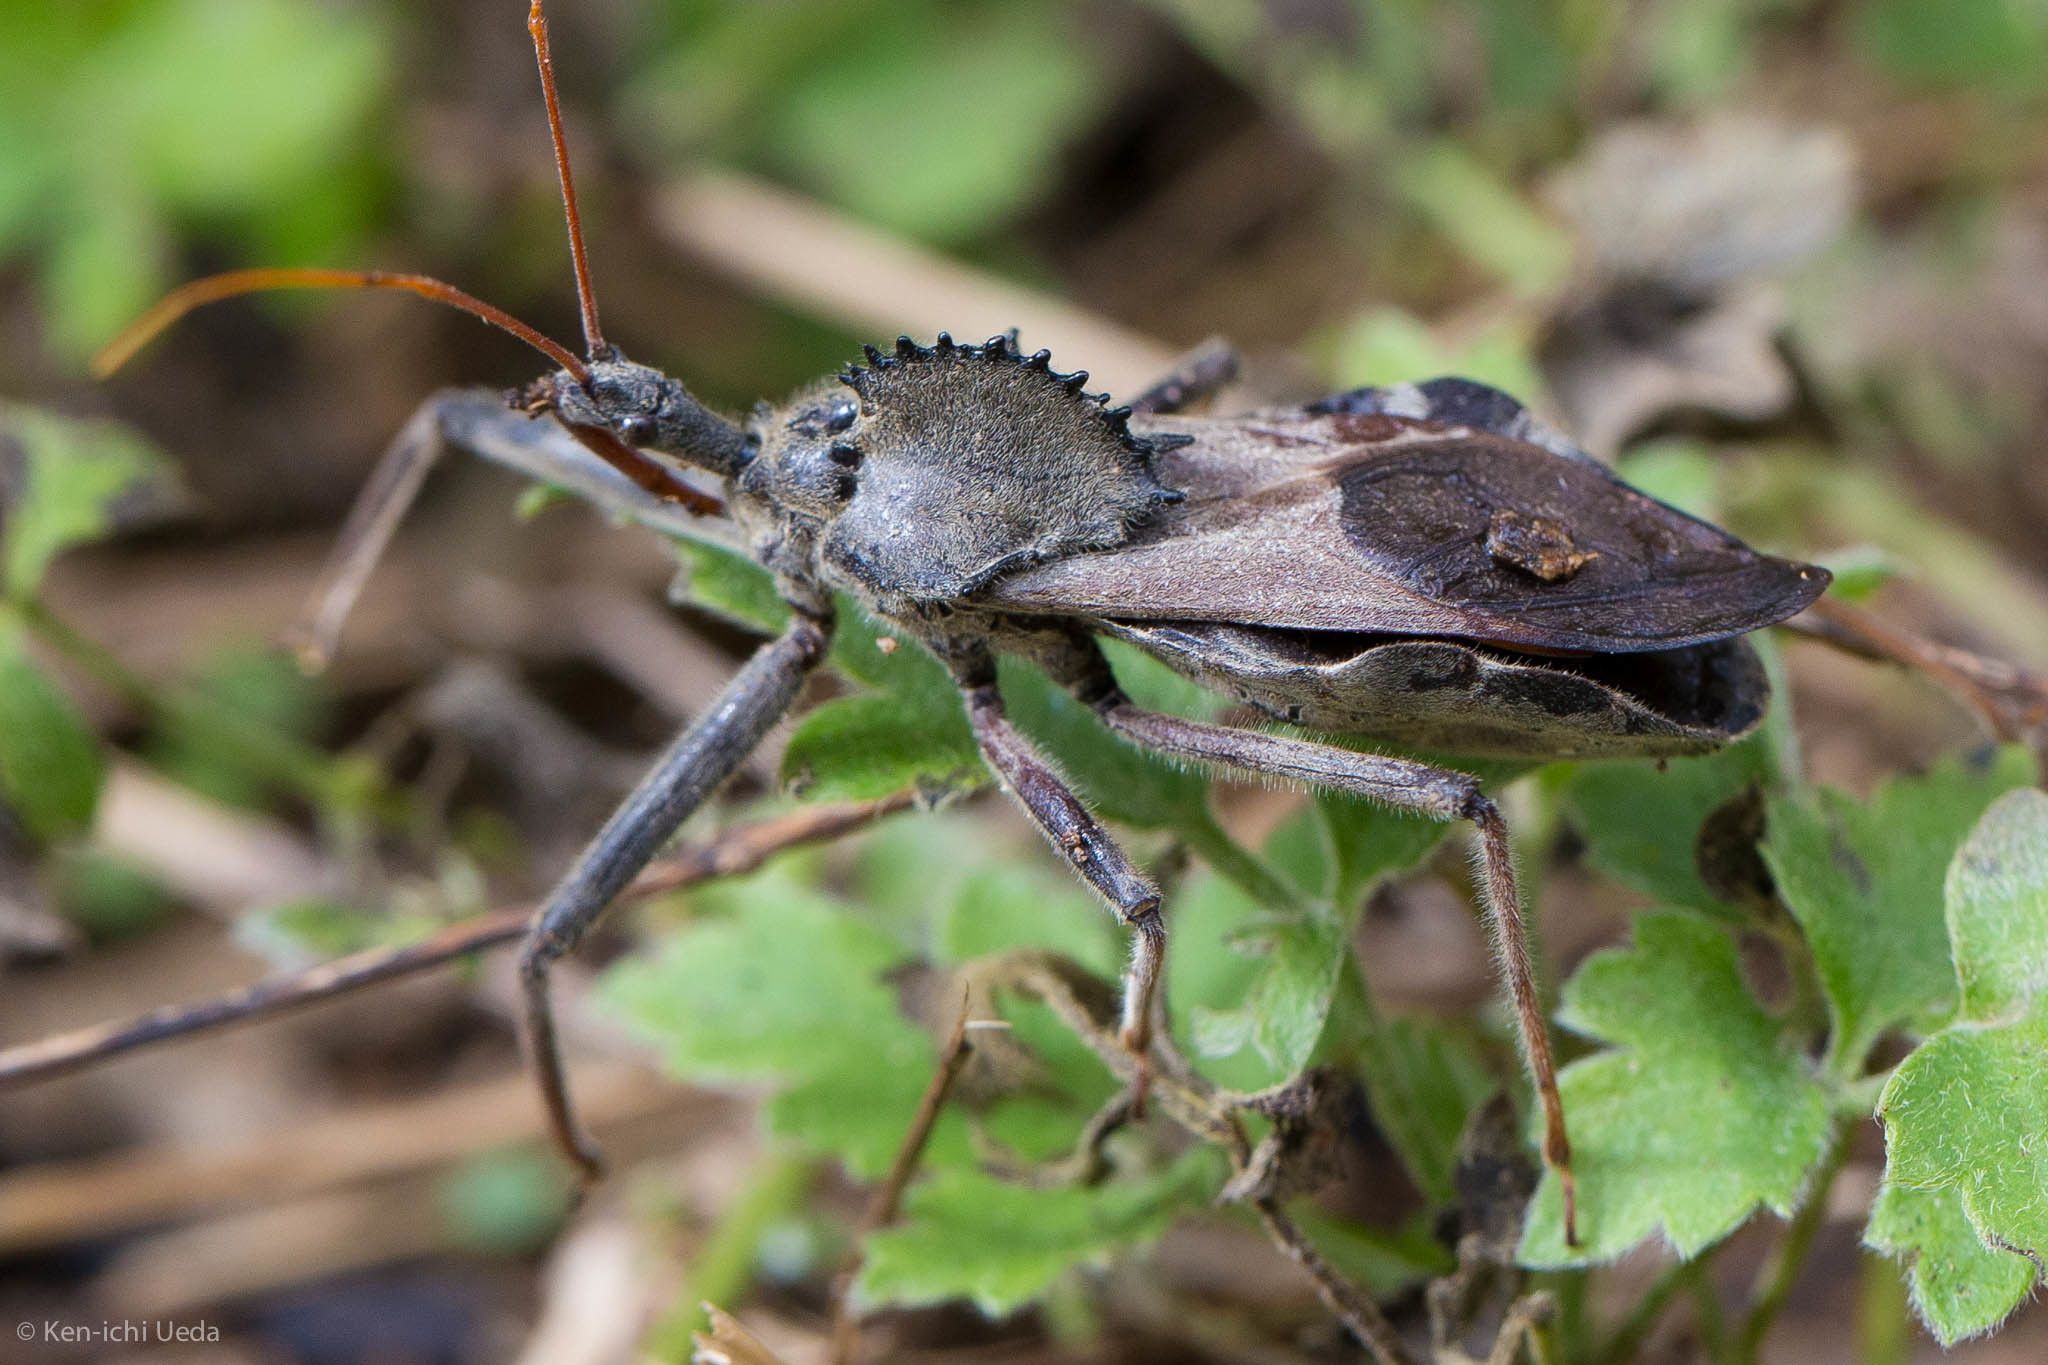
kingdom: Animalia
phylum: Arthropoda
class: Insecta
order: Hemiptera
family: Reduviidae
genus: Arilus
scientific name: Arilus cristatus
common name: North american wheel bug
